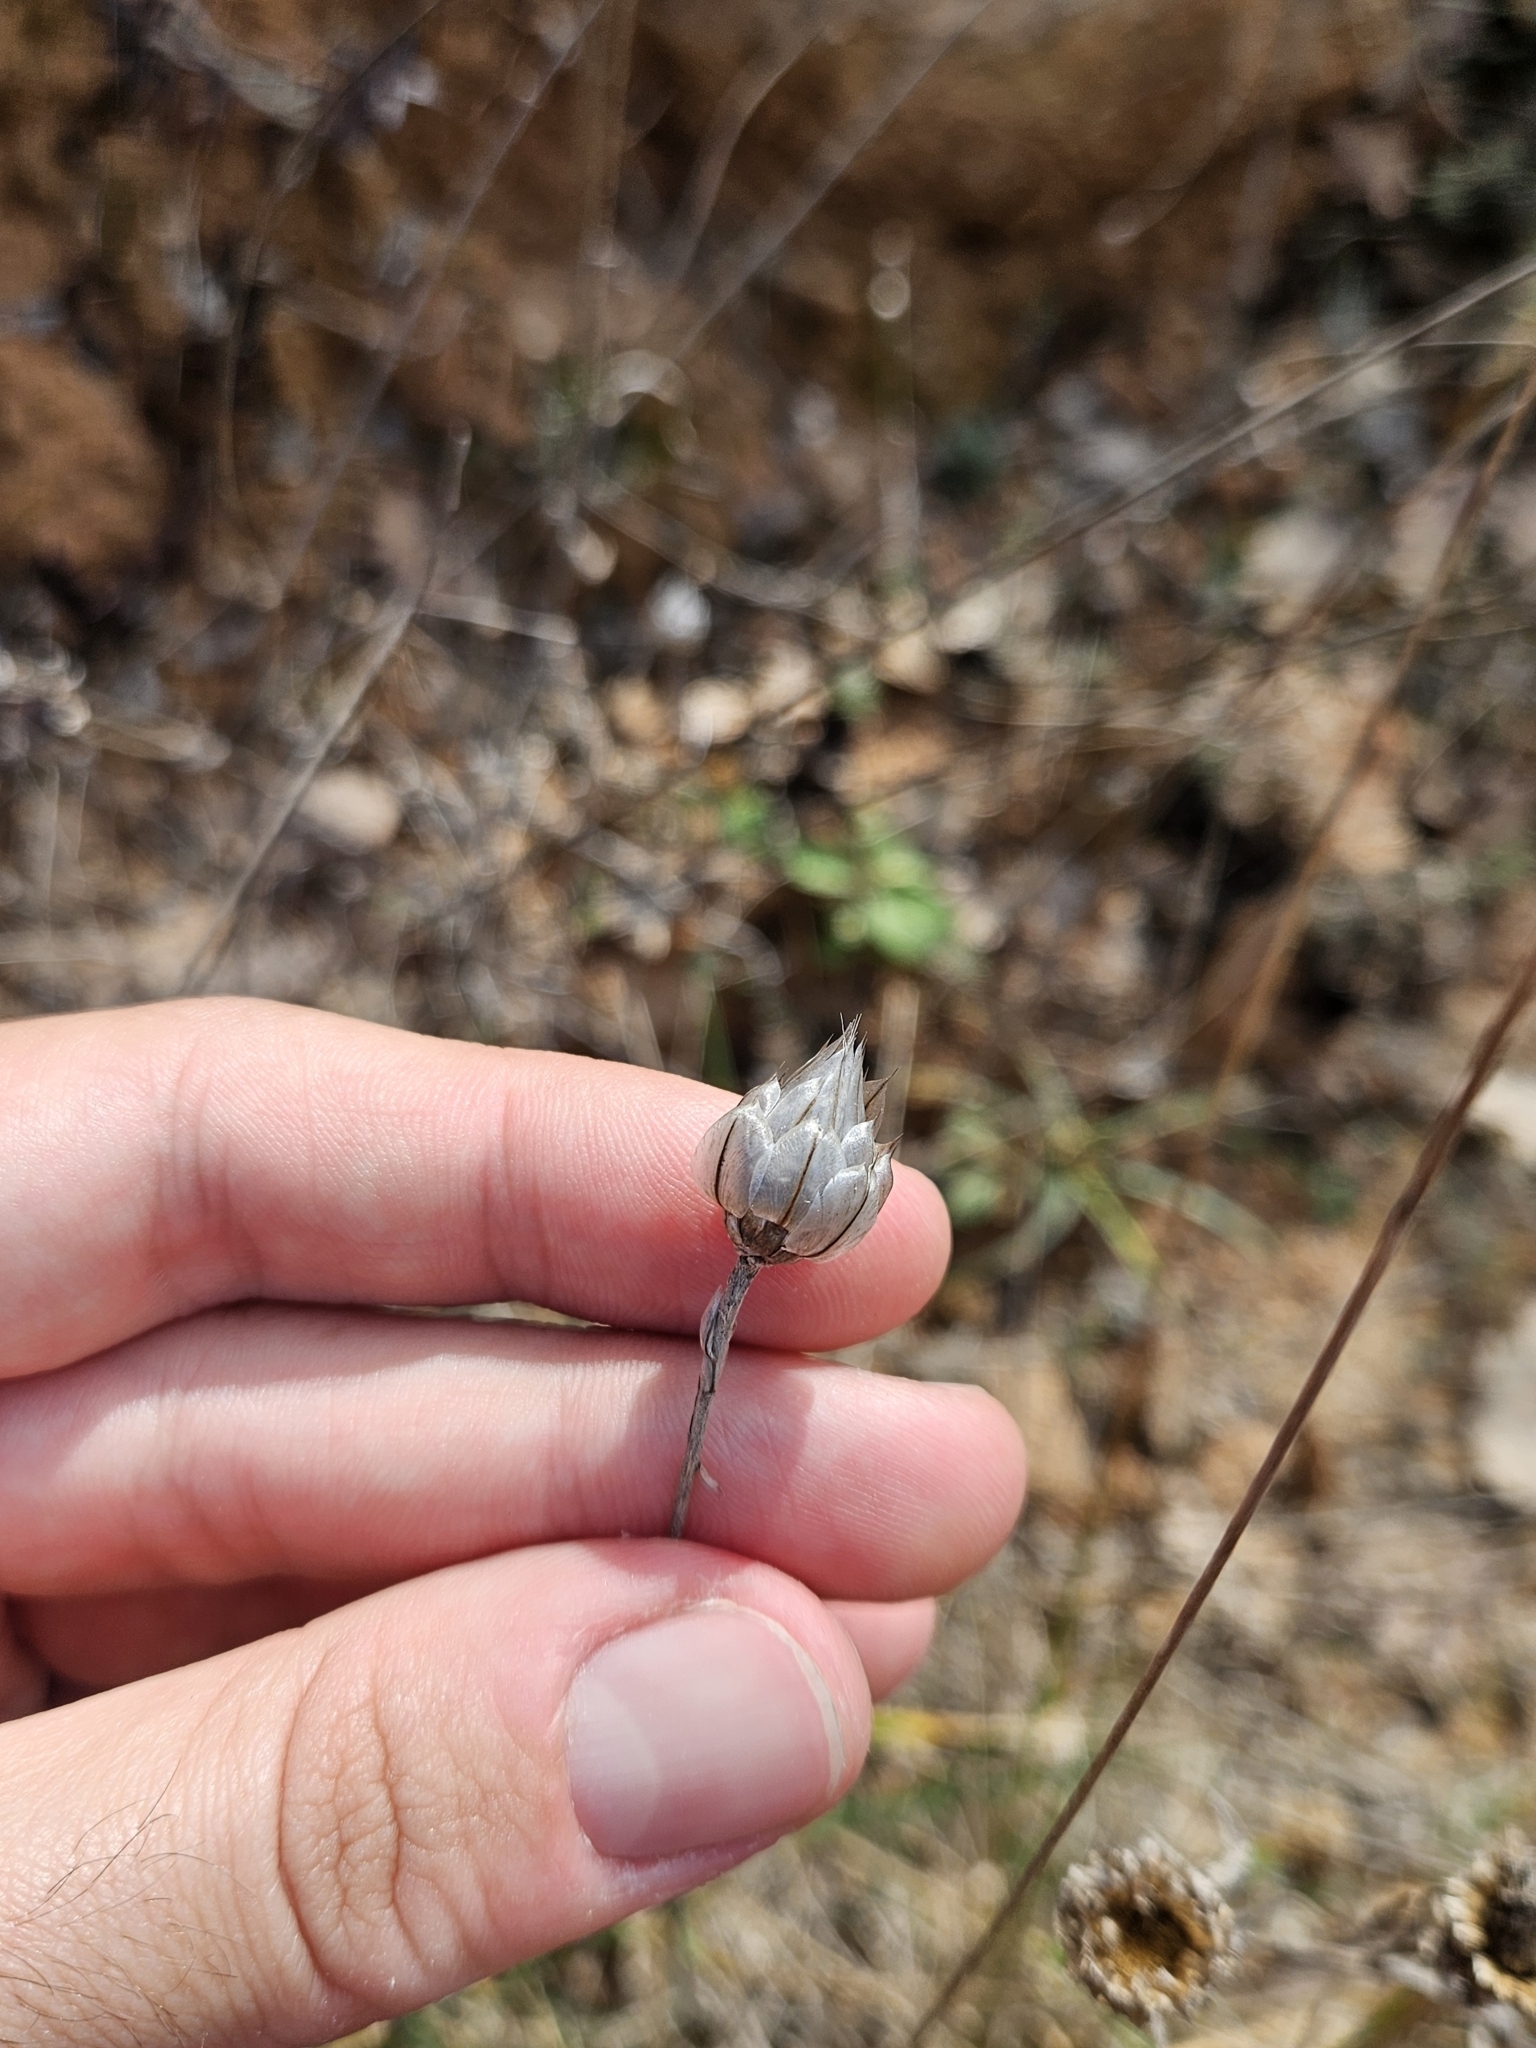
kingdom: Plantae
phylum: Tracheophyta
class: Magnoliopsida
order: Asterales
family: Asteraceae
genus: Catananche
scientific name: Catananche caerulea
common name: Blue cupidone
